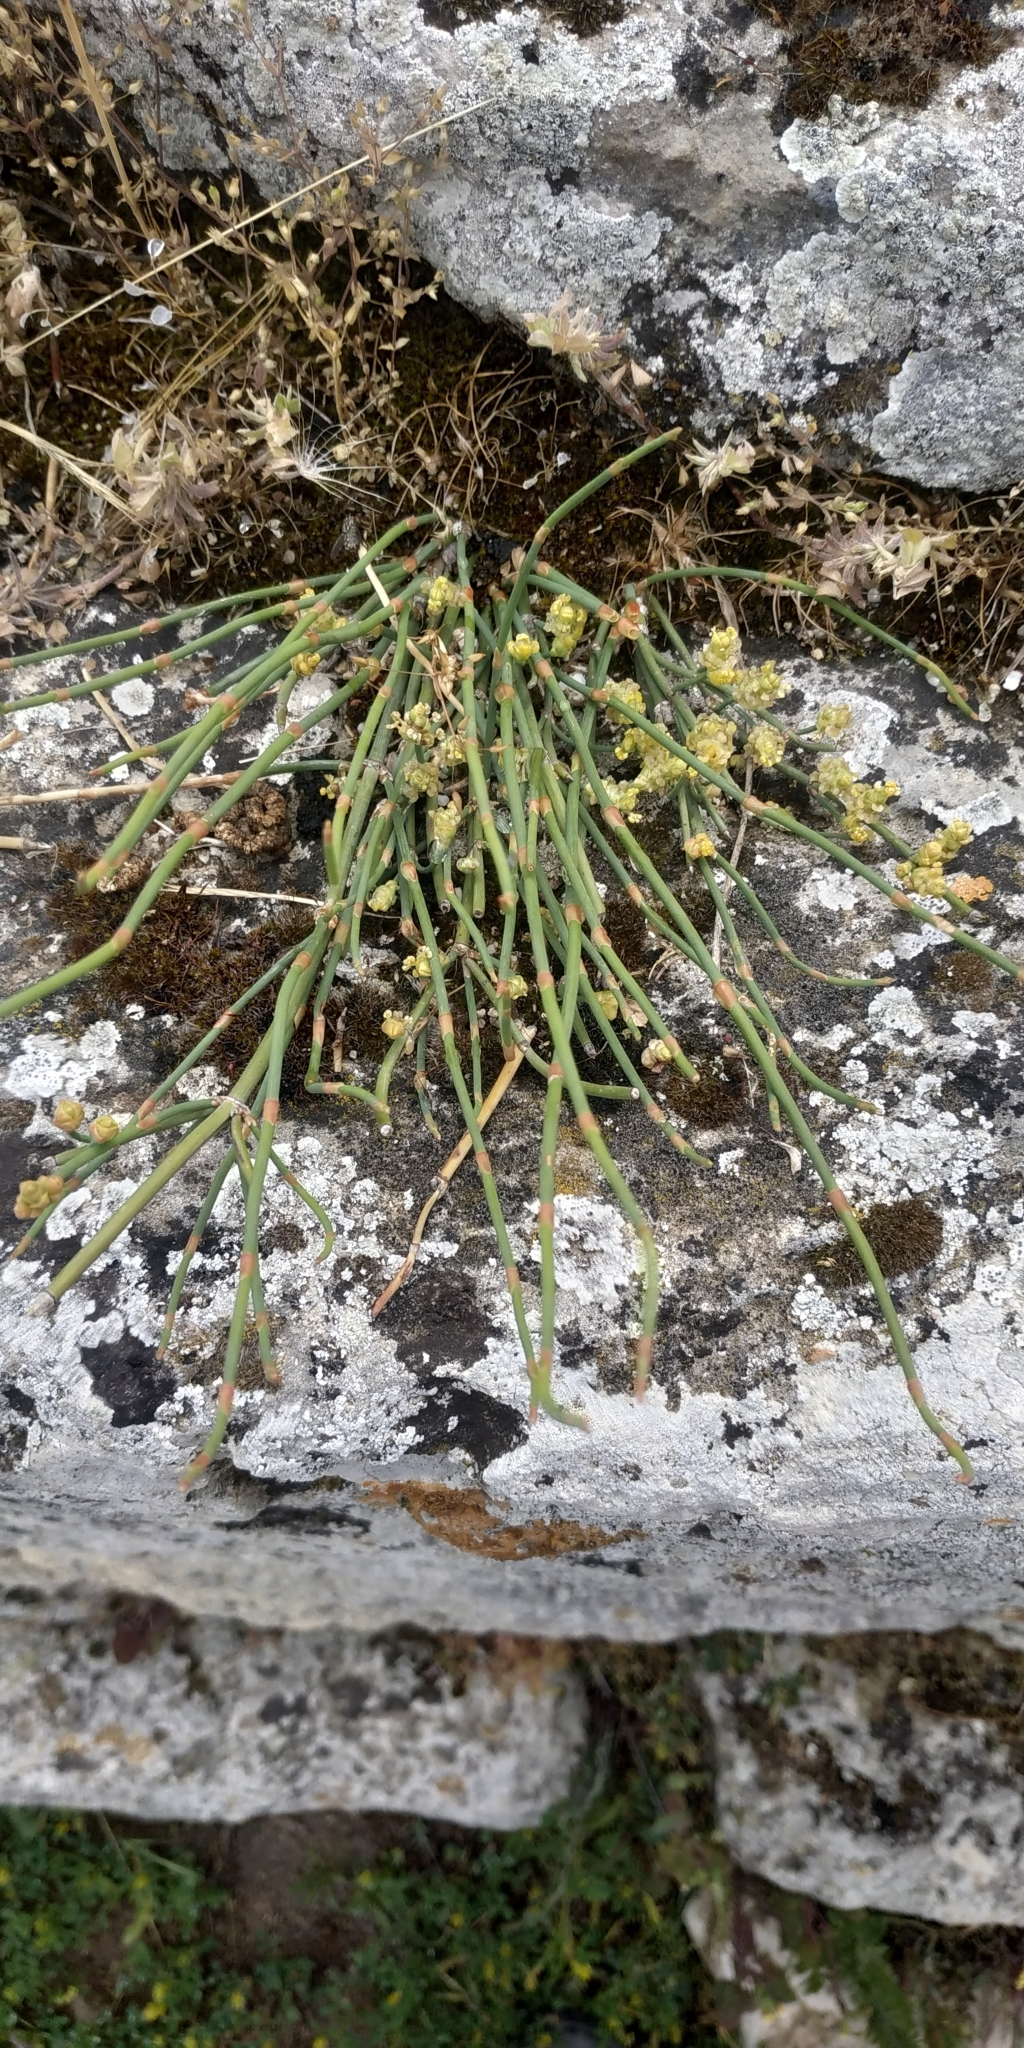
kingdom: Plantae
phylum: Tracheophyta
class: Gnetopsida
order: Ephedrales
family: Ephedraceae
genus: Ephedra
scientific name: Ephedra distachya
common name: Sea grape
